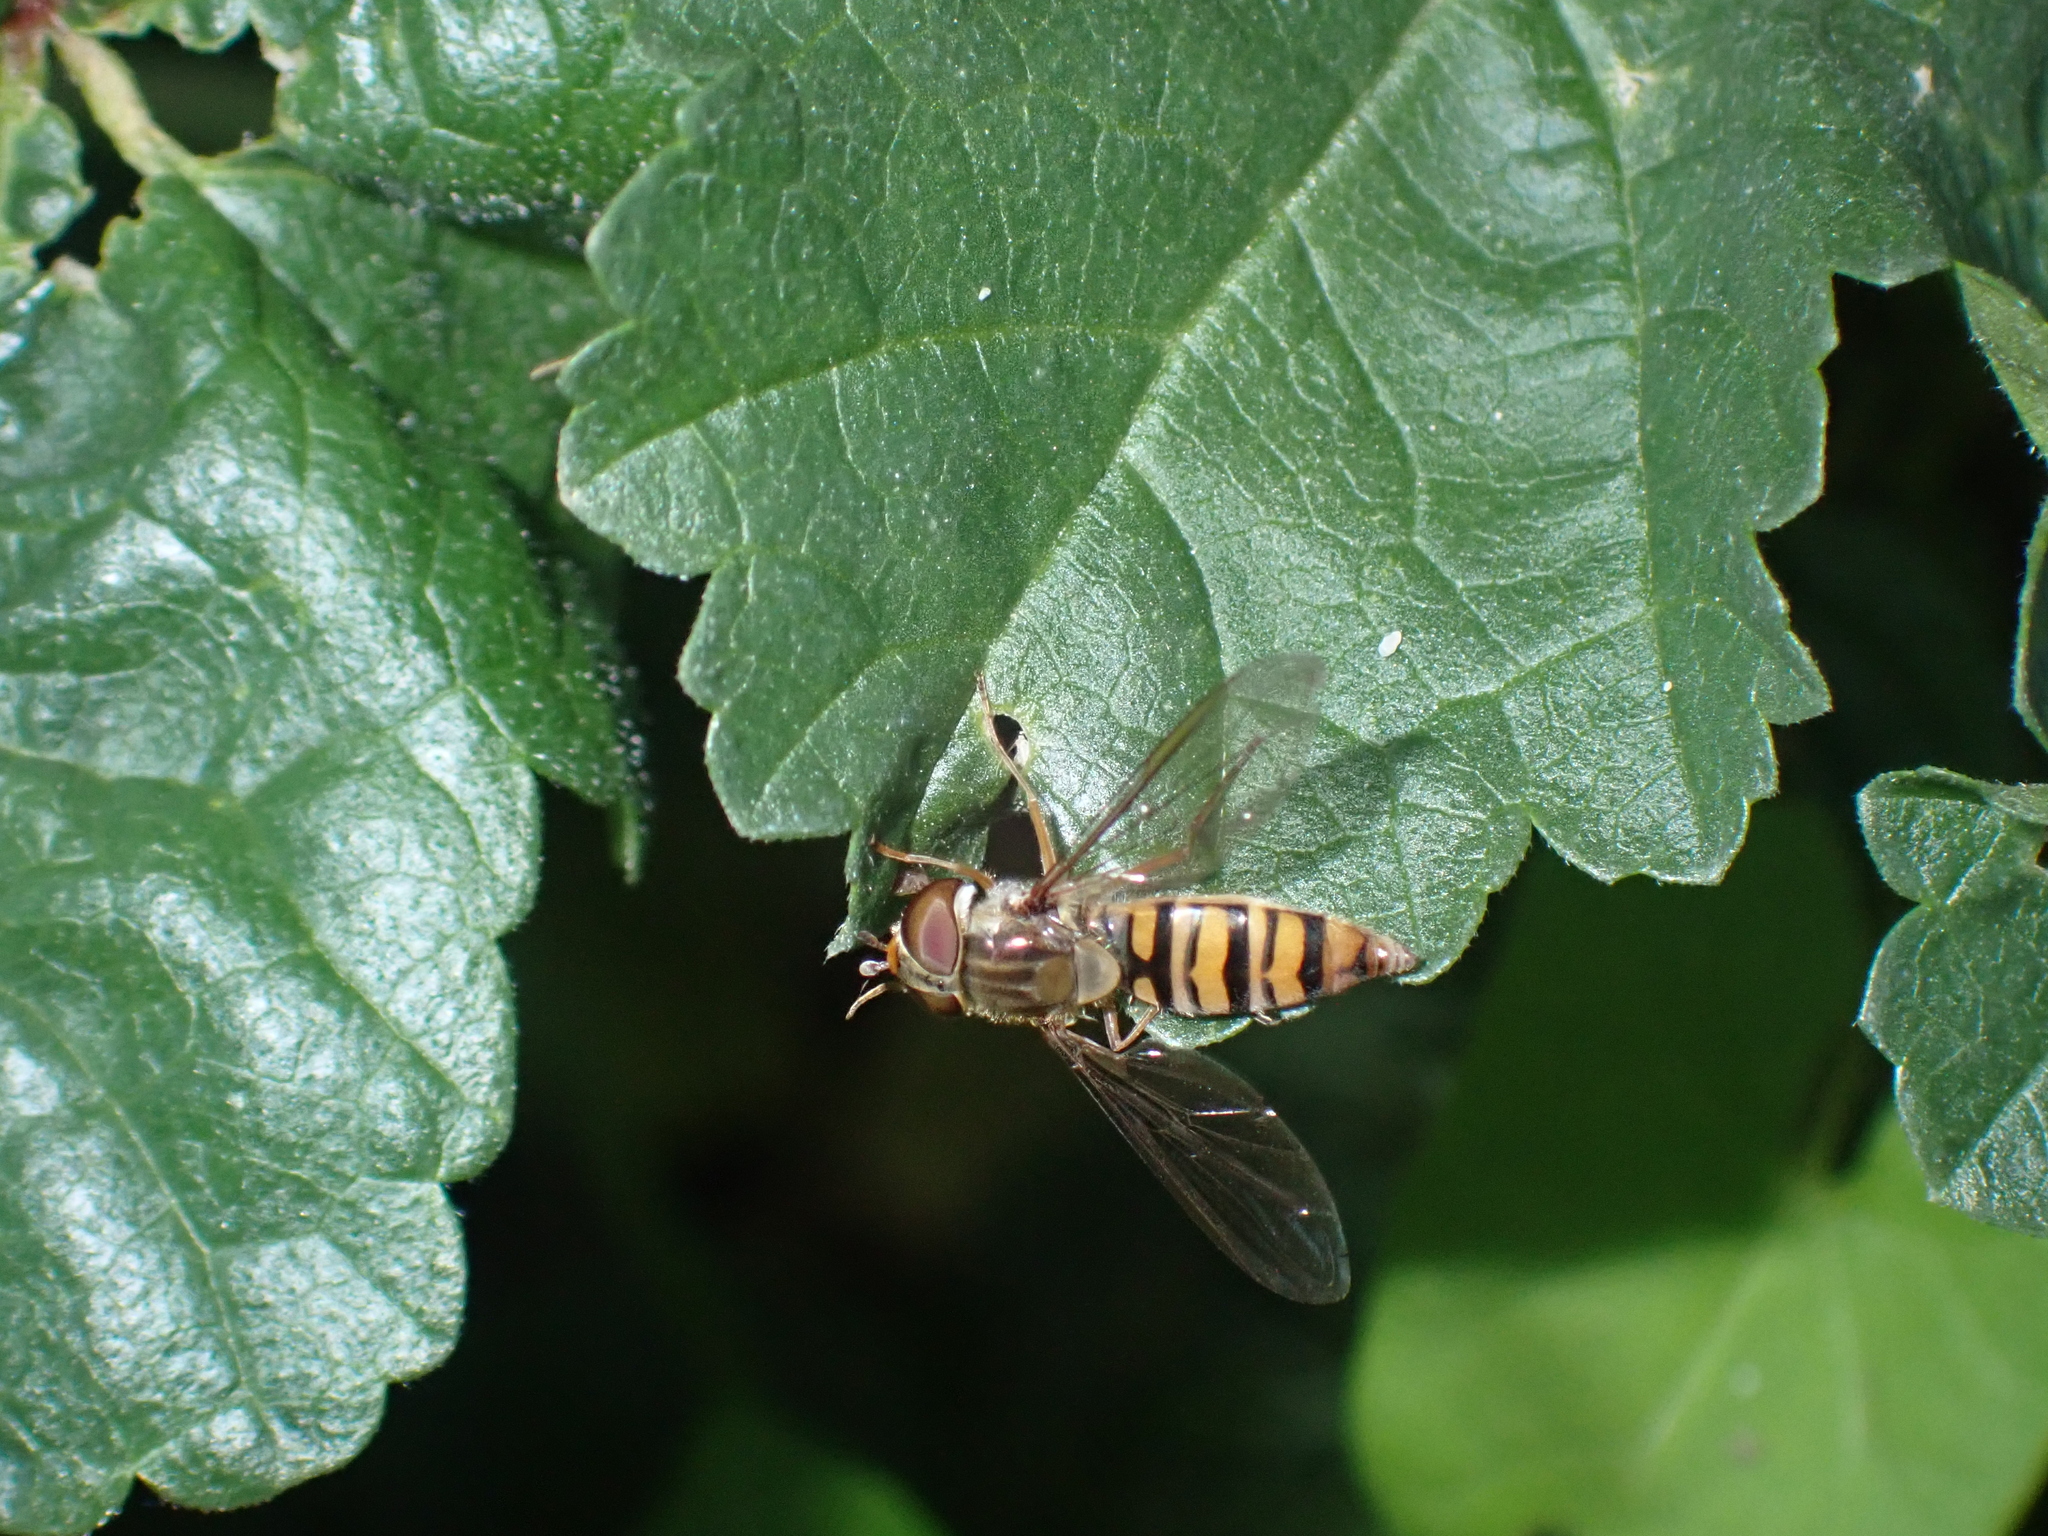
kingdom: Animalia
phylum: Arthropoda
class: Insecta
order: Diptera
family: Syrphidae
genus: Episyrphus
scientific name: Episyrphus balteatus
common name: Marmalade hoverfly
